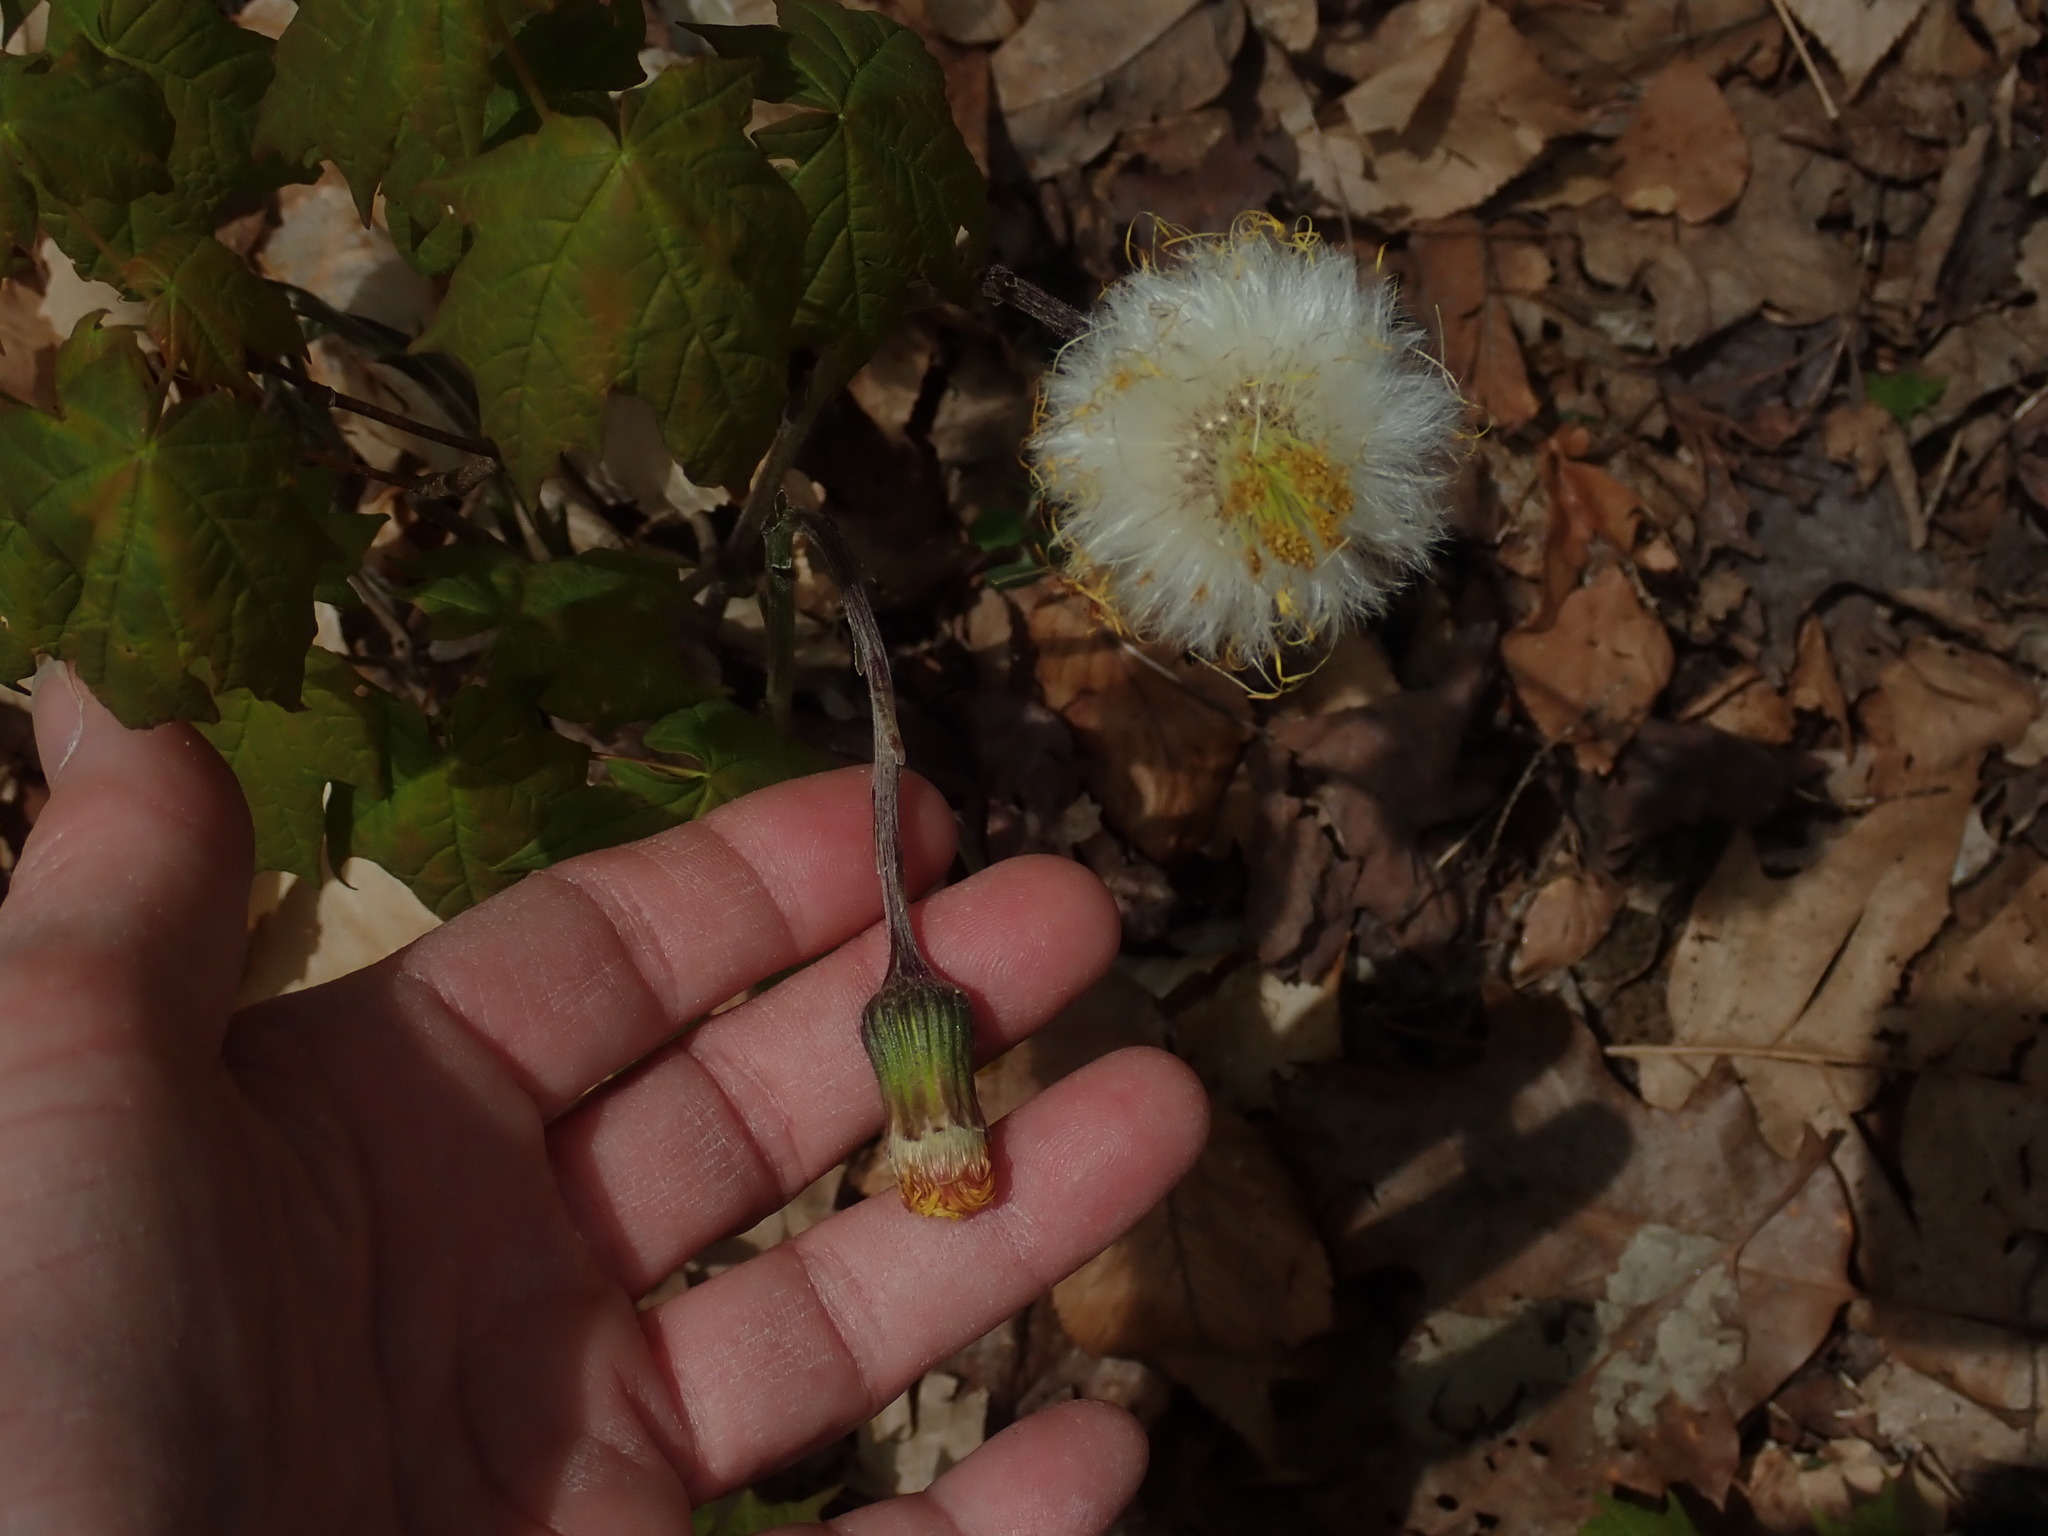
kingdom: Plantae
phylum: Tracheophyta
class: Magnoliopsida
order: Asterales
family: Asteraceae
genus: Tussilago
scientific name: Tussilago farfara
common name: Coltsfoot
